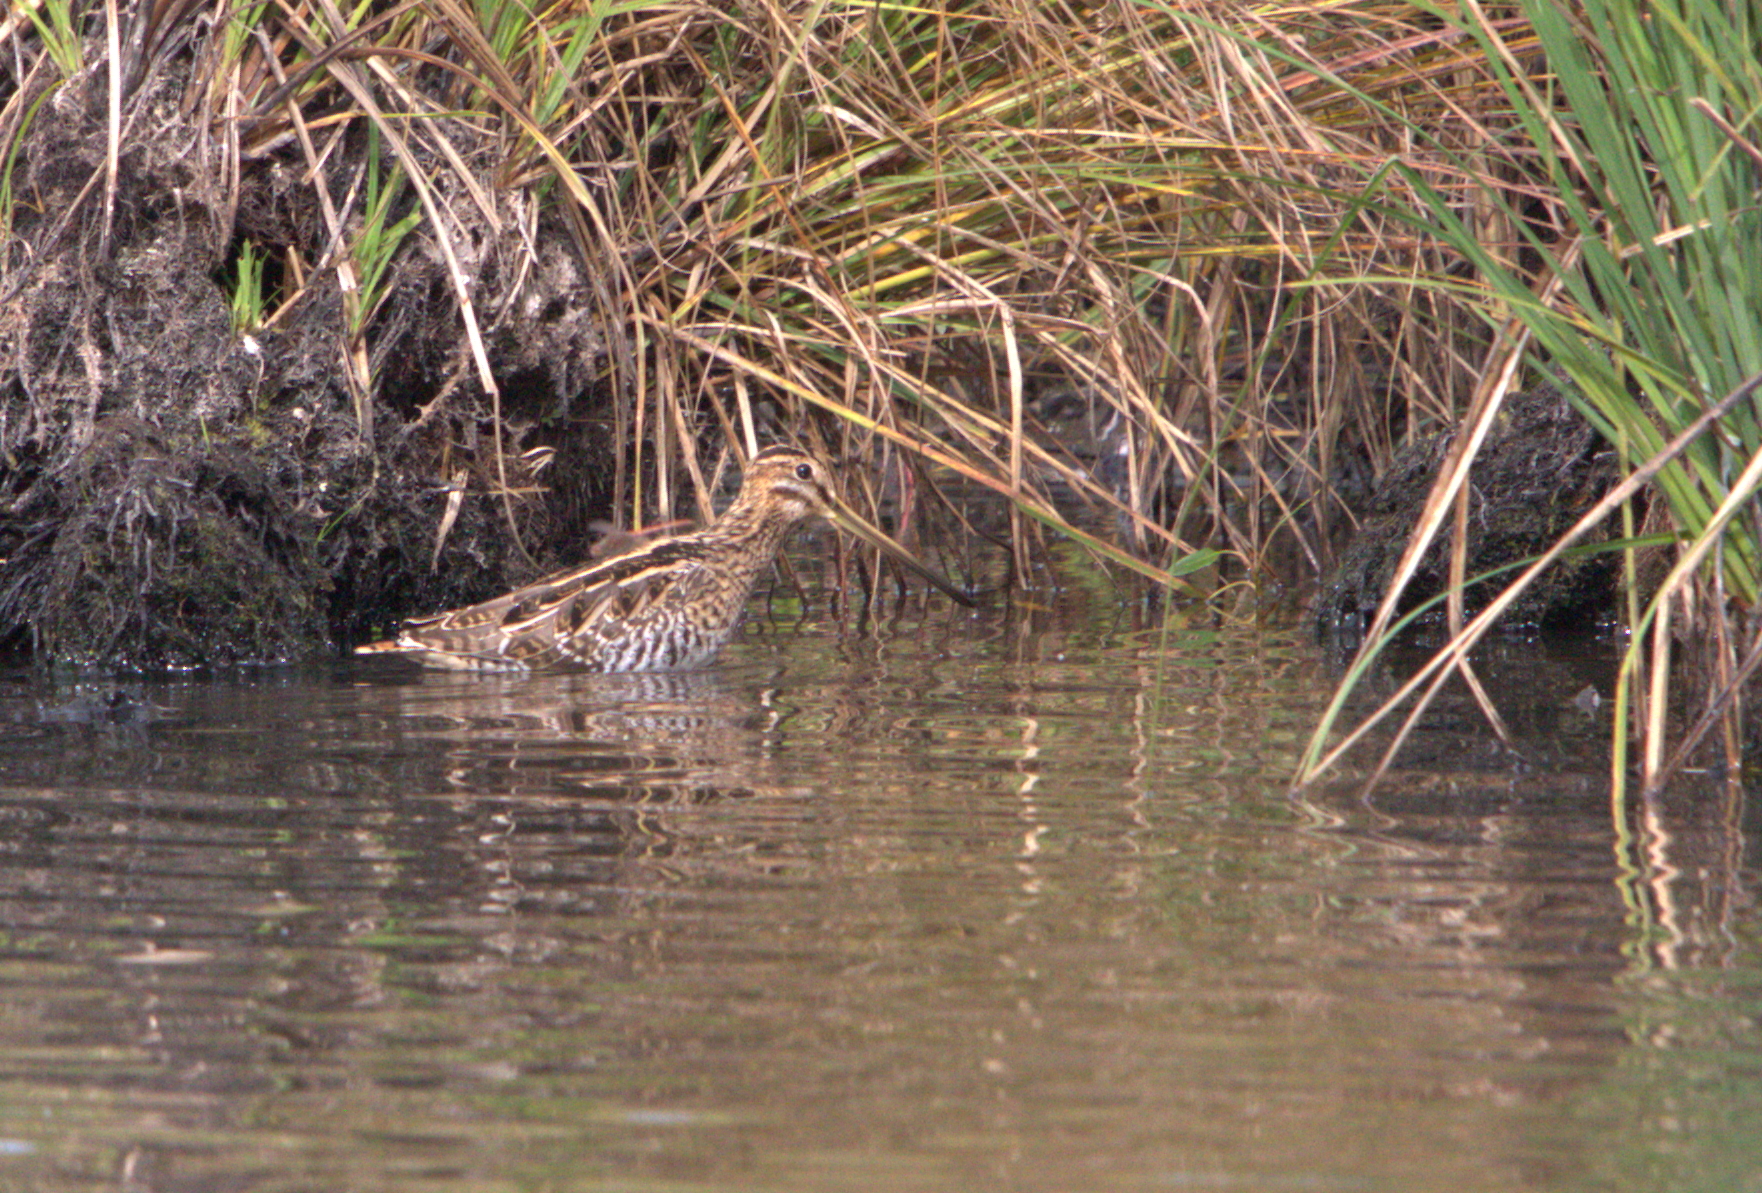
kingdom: Animalia
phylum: Chordata
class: Aves
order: Charadriiformes
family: Scolopacidae
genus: Gallinago
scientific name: Gallinago gallinago
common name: Common snipe
